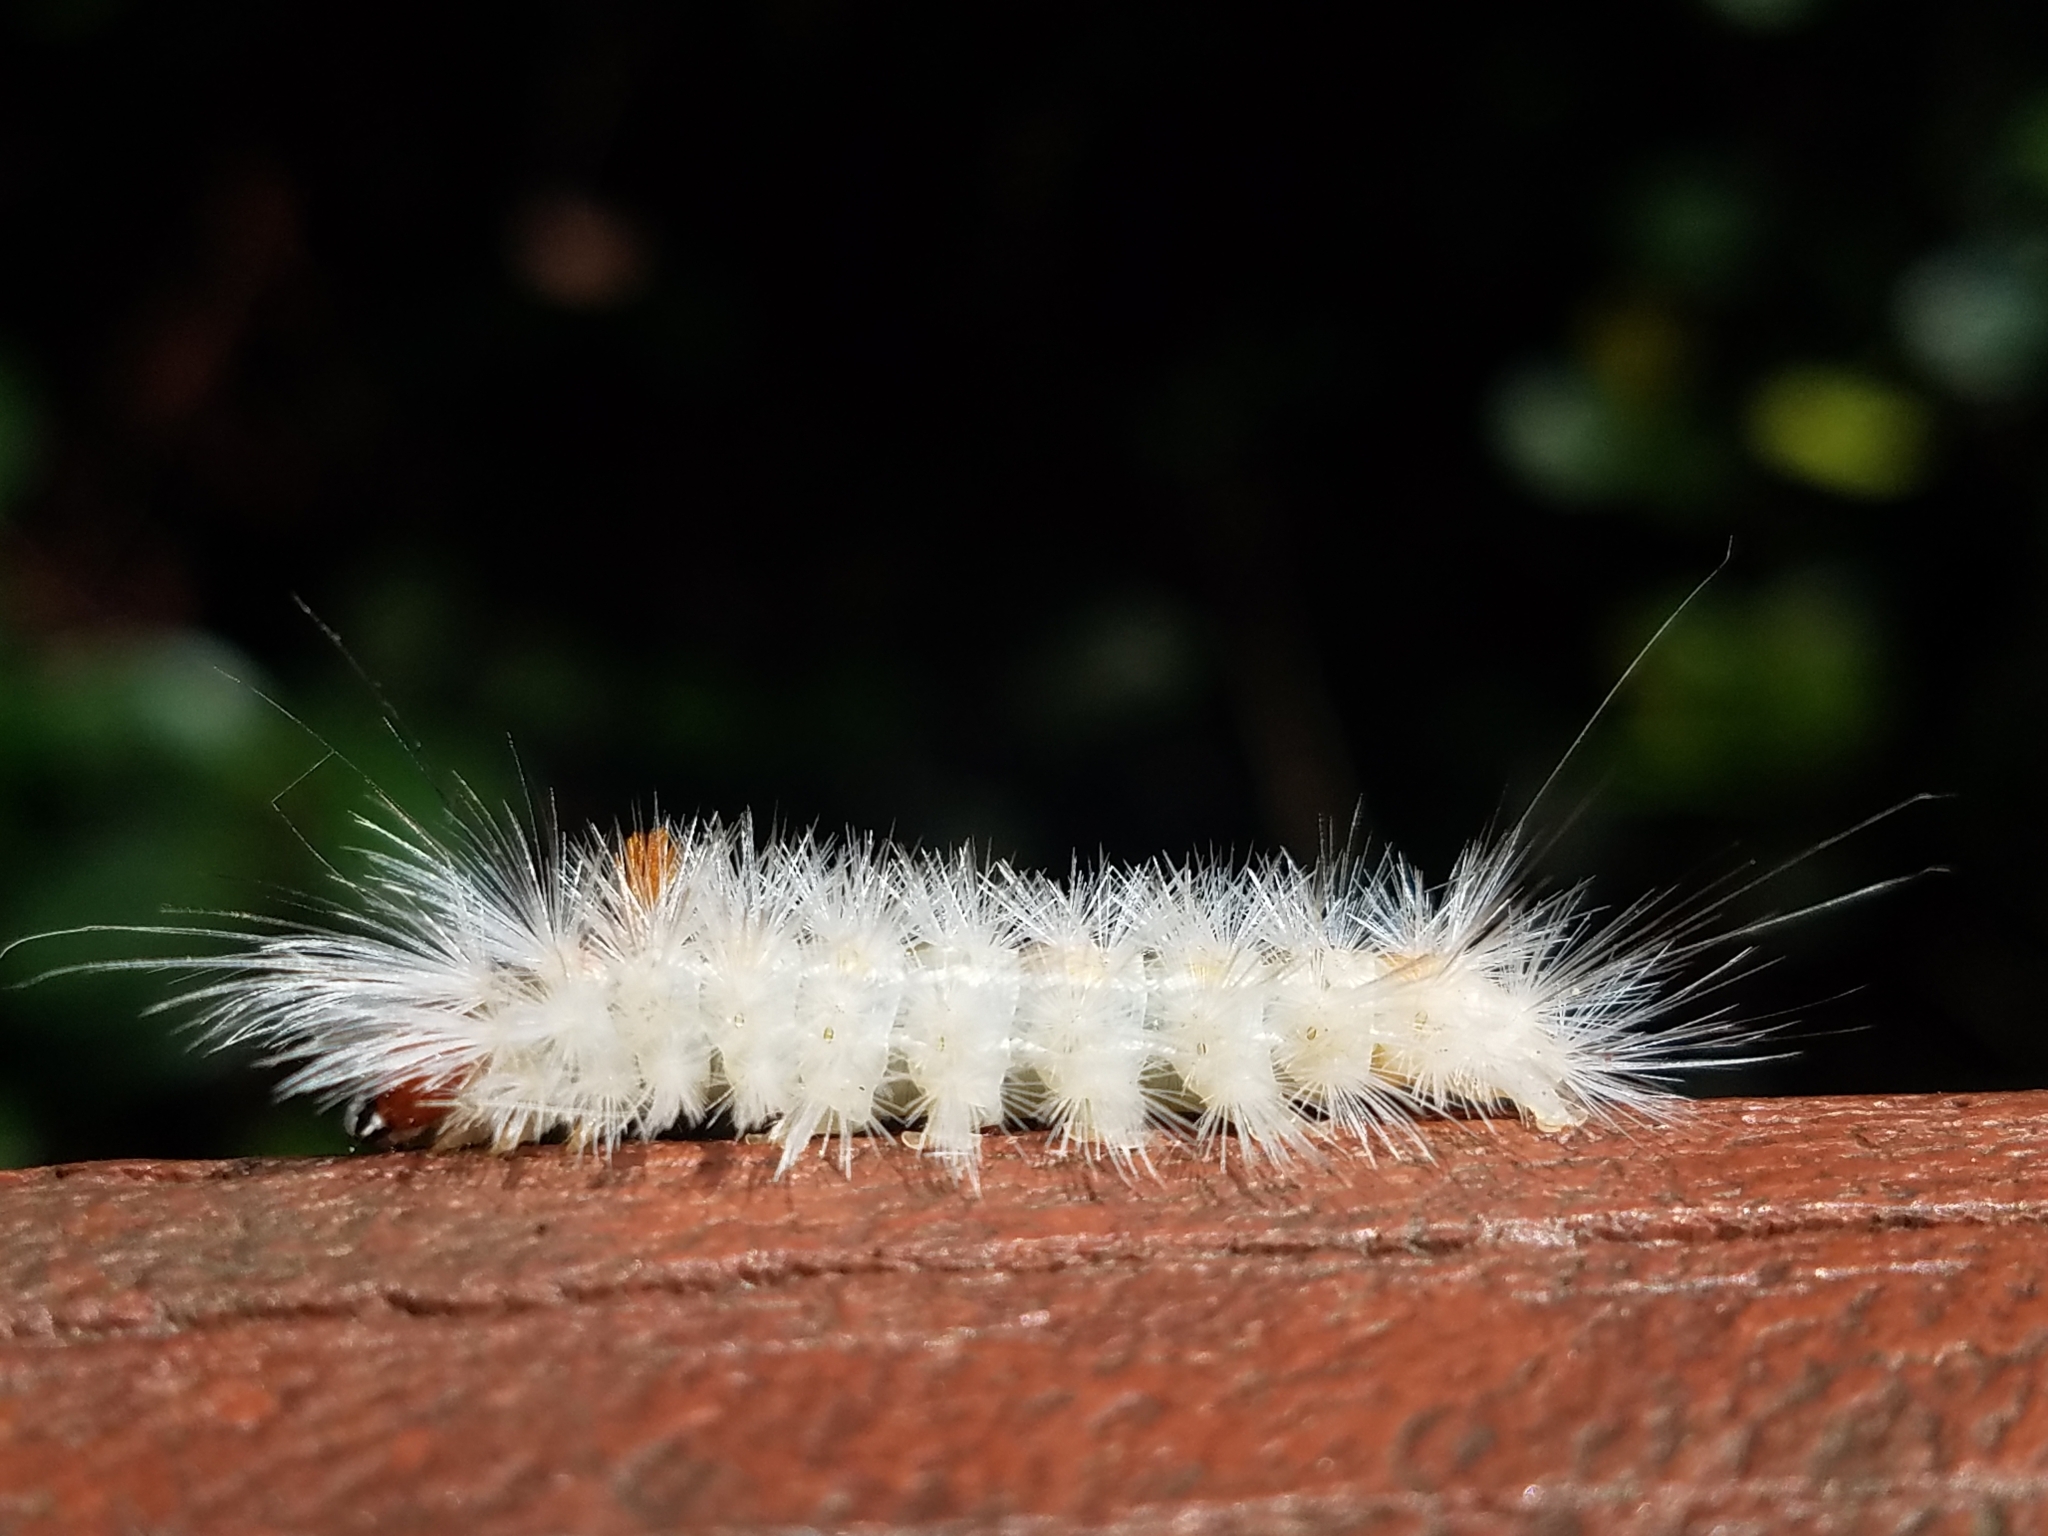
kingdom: Animalia
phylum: Arthropoda
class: Insecta
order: Lepidoptera
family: Erebidae
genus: Lymire
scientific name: Lymire edwardsii
